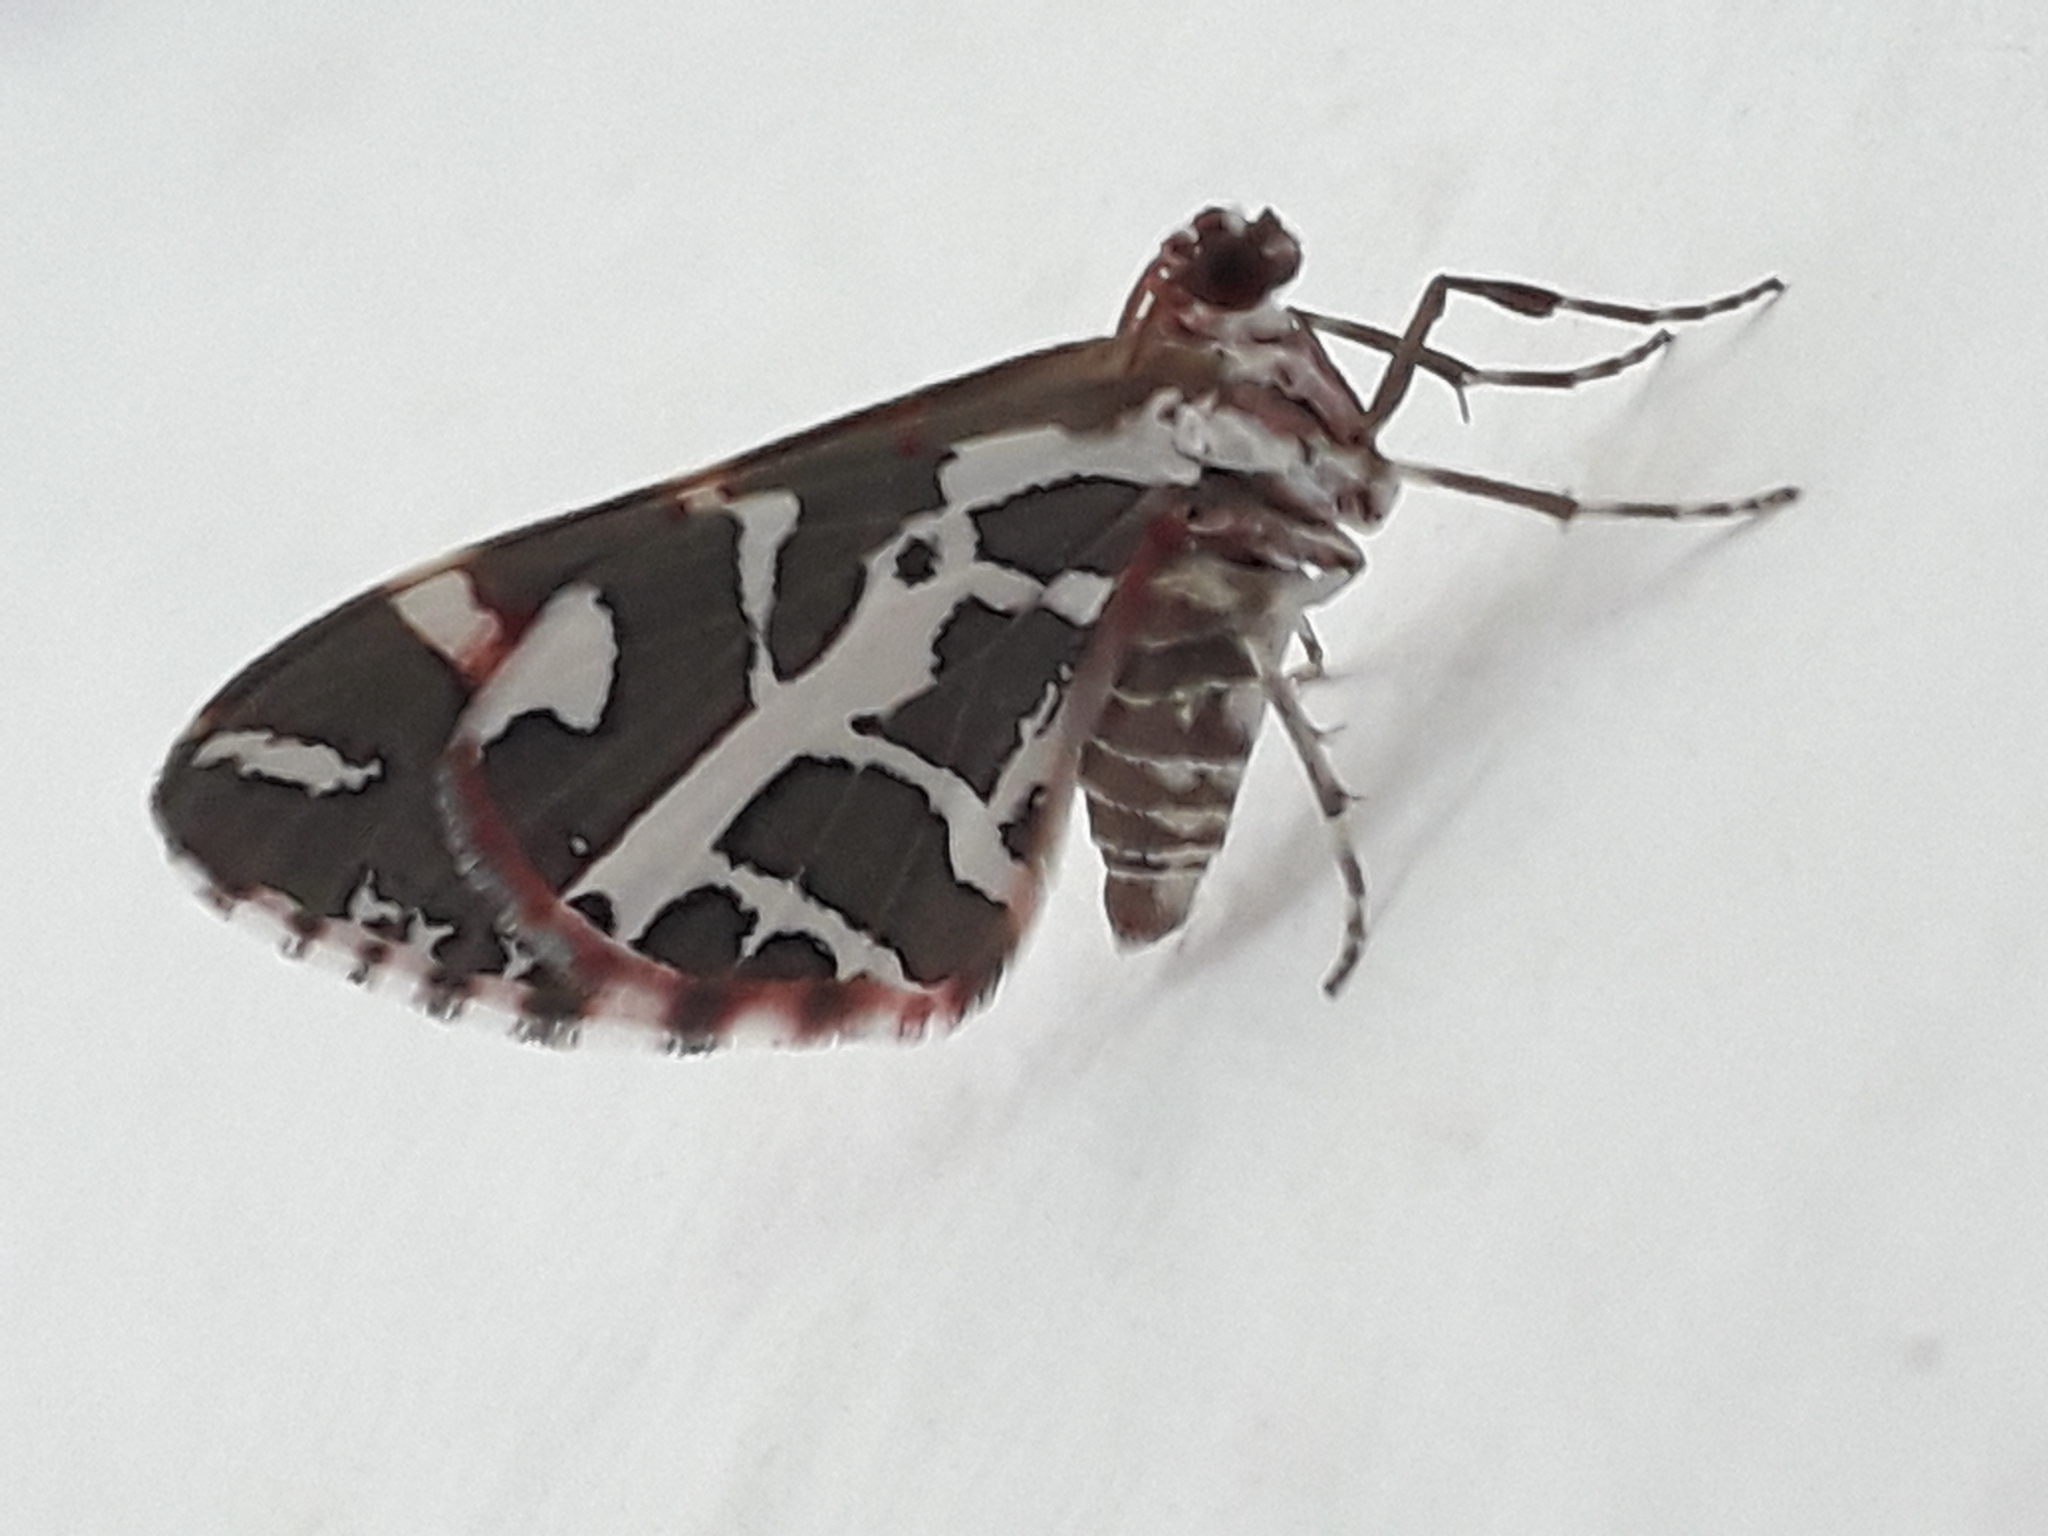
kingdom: Animalia
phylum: Arthropoda
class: Insecta
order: Lepidoptera
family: Geometridae
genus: Stamnodes
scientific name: Stamnodes
